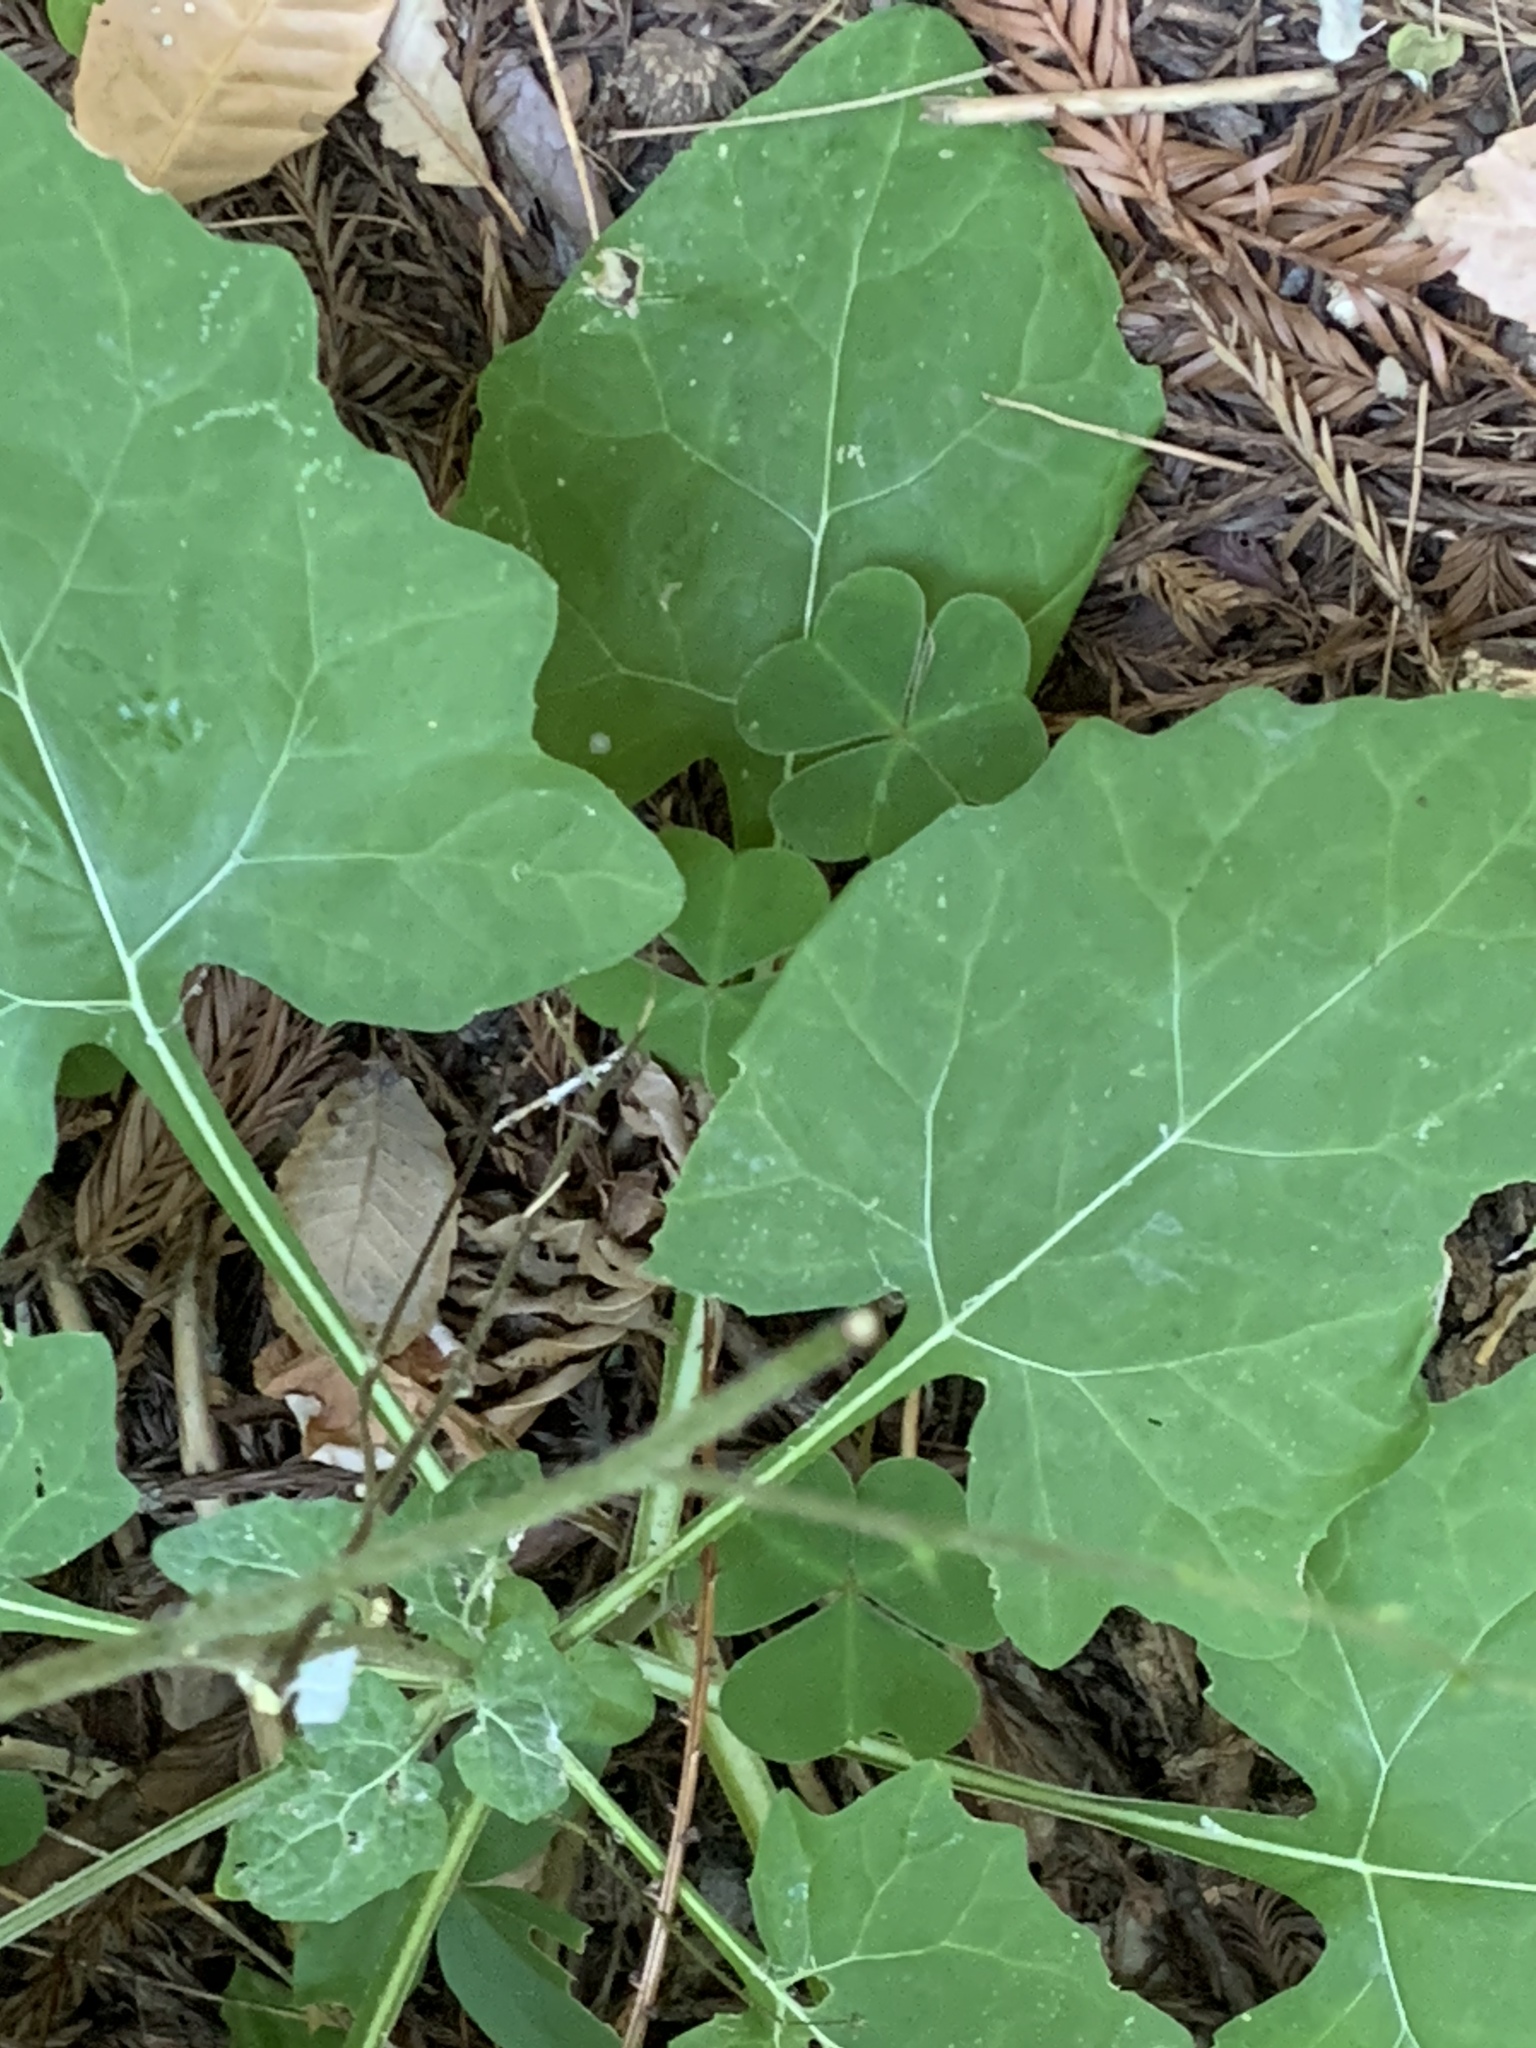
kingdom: Plantae
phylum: Tracheophyta
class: Magnoliopsida
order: Asterales
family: Asteraceae
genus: Adenocaulon
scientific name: Adenocaulon bicolor
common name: Trailplant
